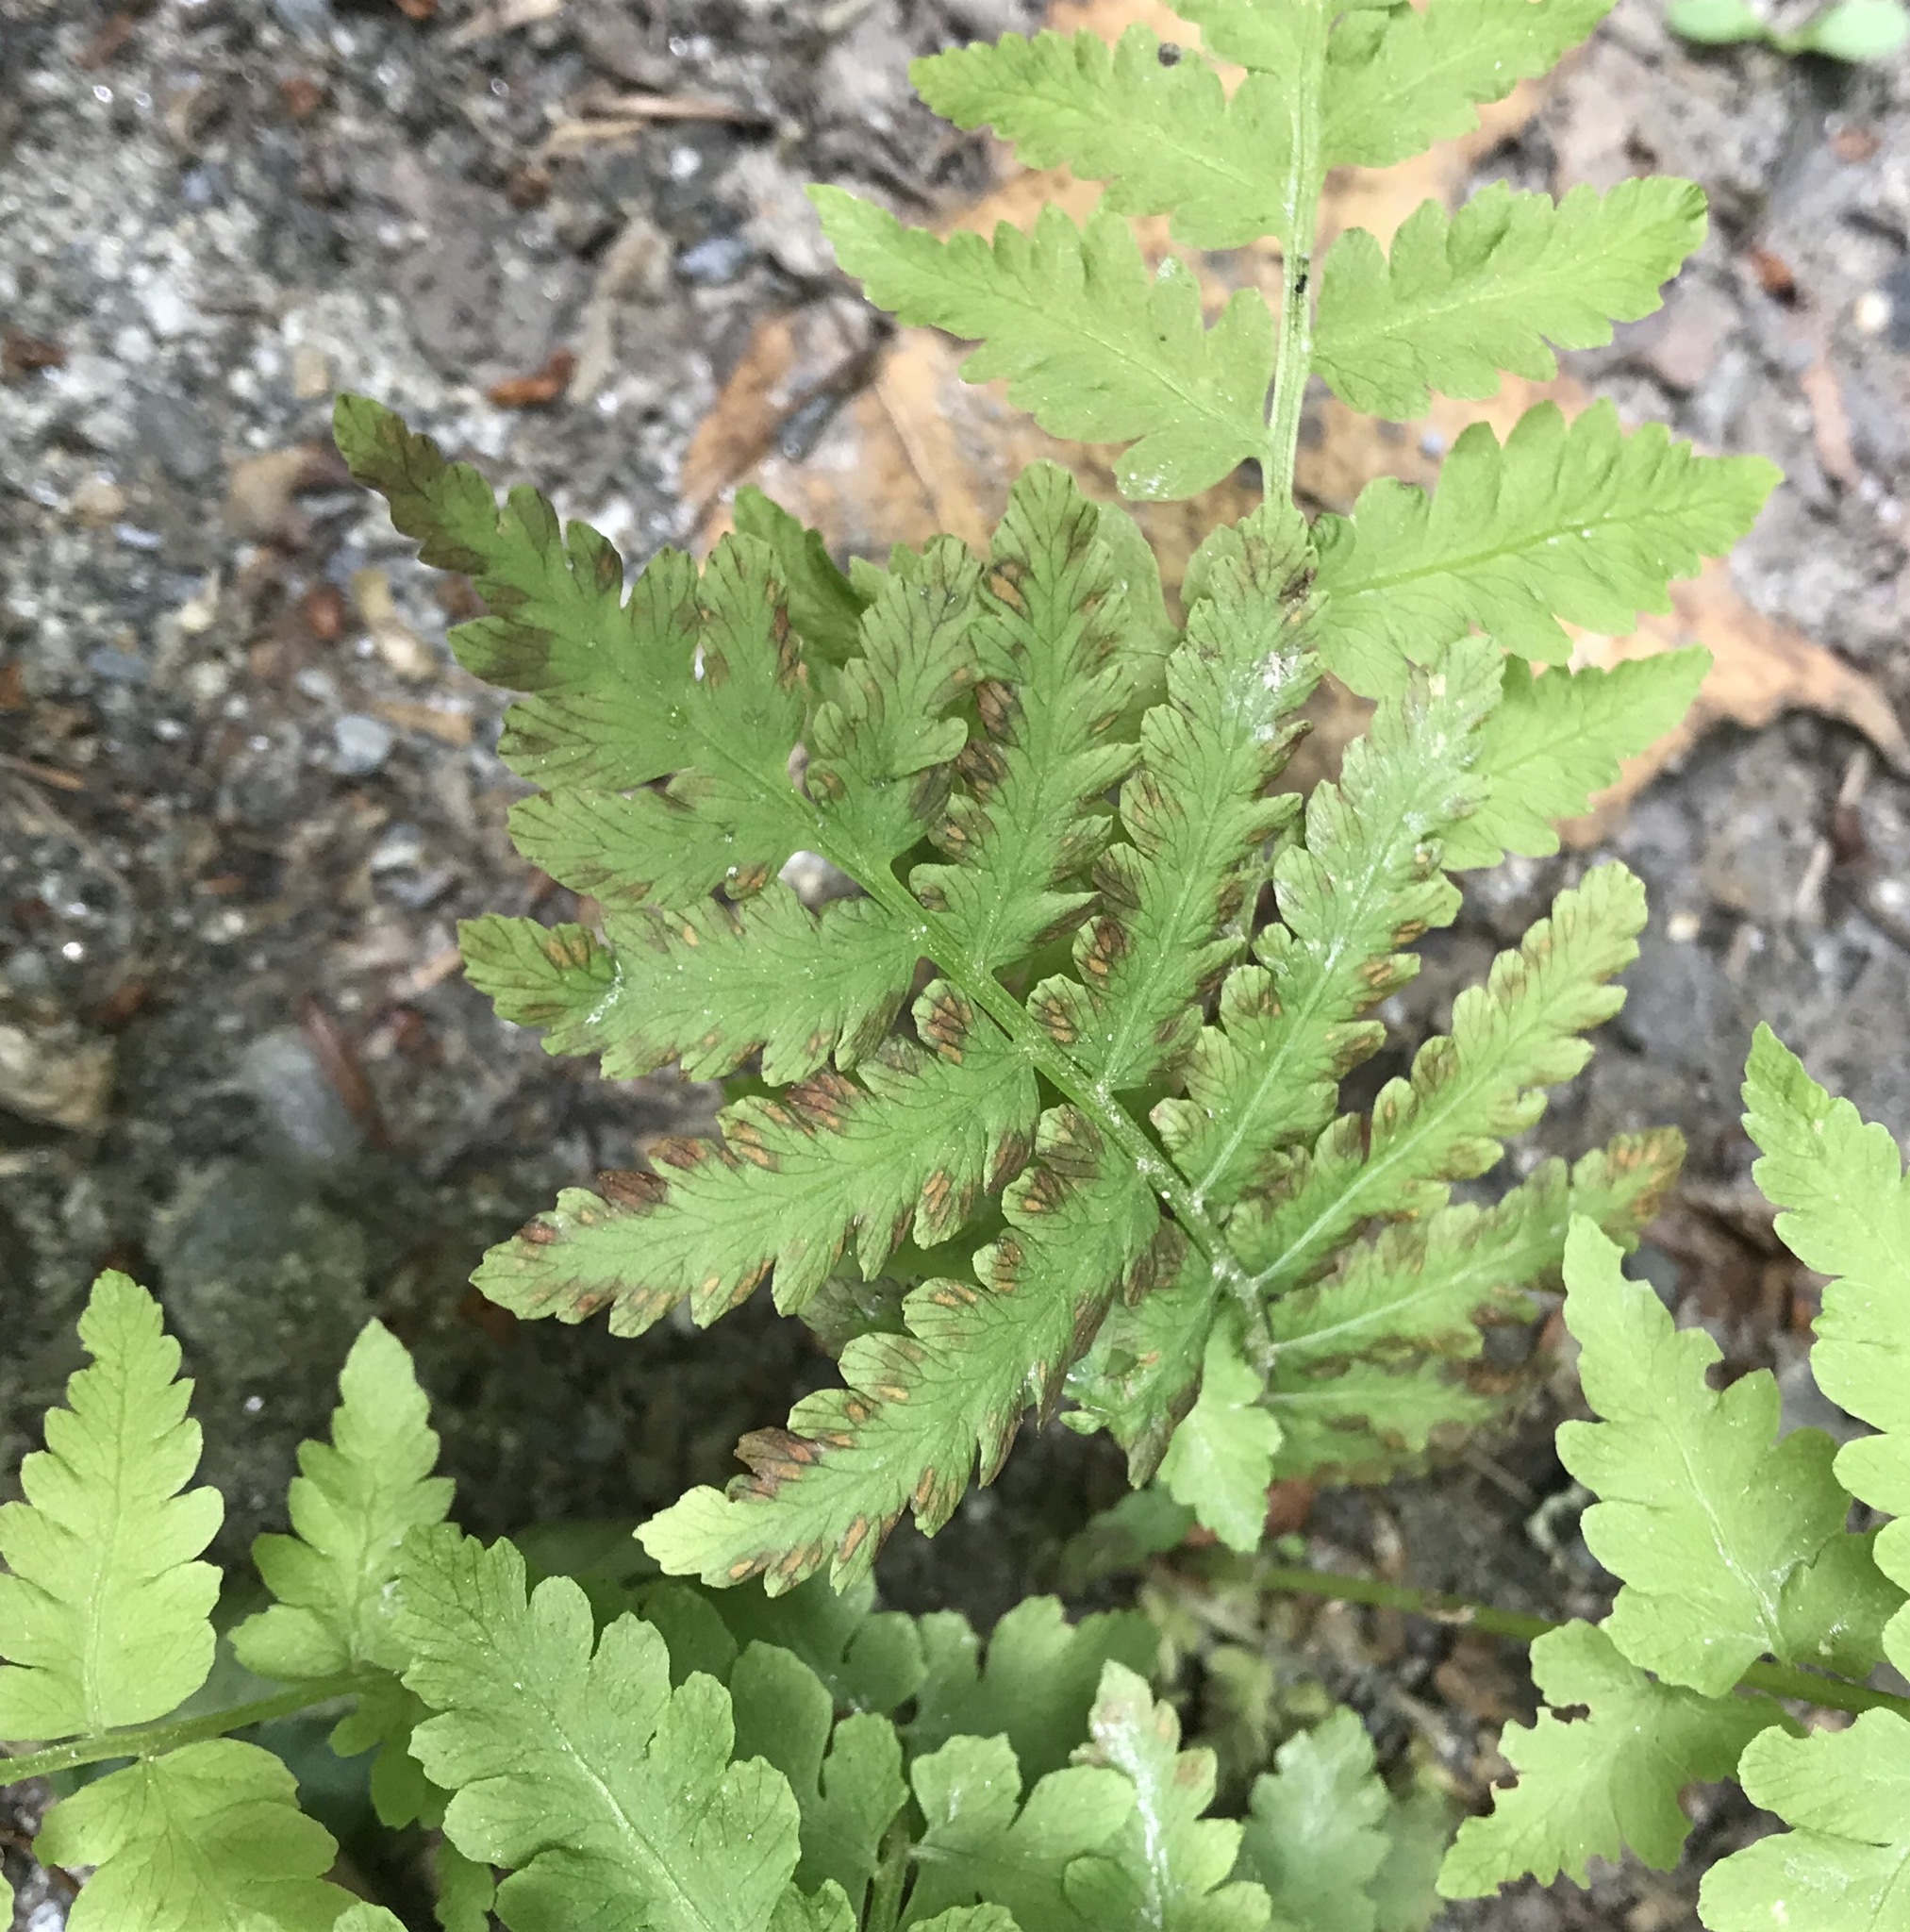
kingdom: Plantae
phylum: Tracheophyta
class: Polypodiopsida
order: Polypodiales
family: Dryopteridaceae
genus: Dryopteris
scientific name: Dryopteris cristata
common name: Crested wood fern
